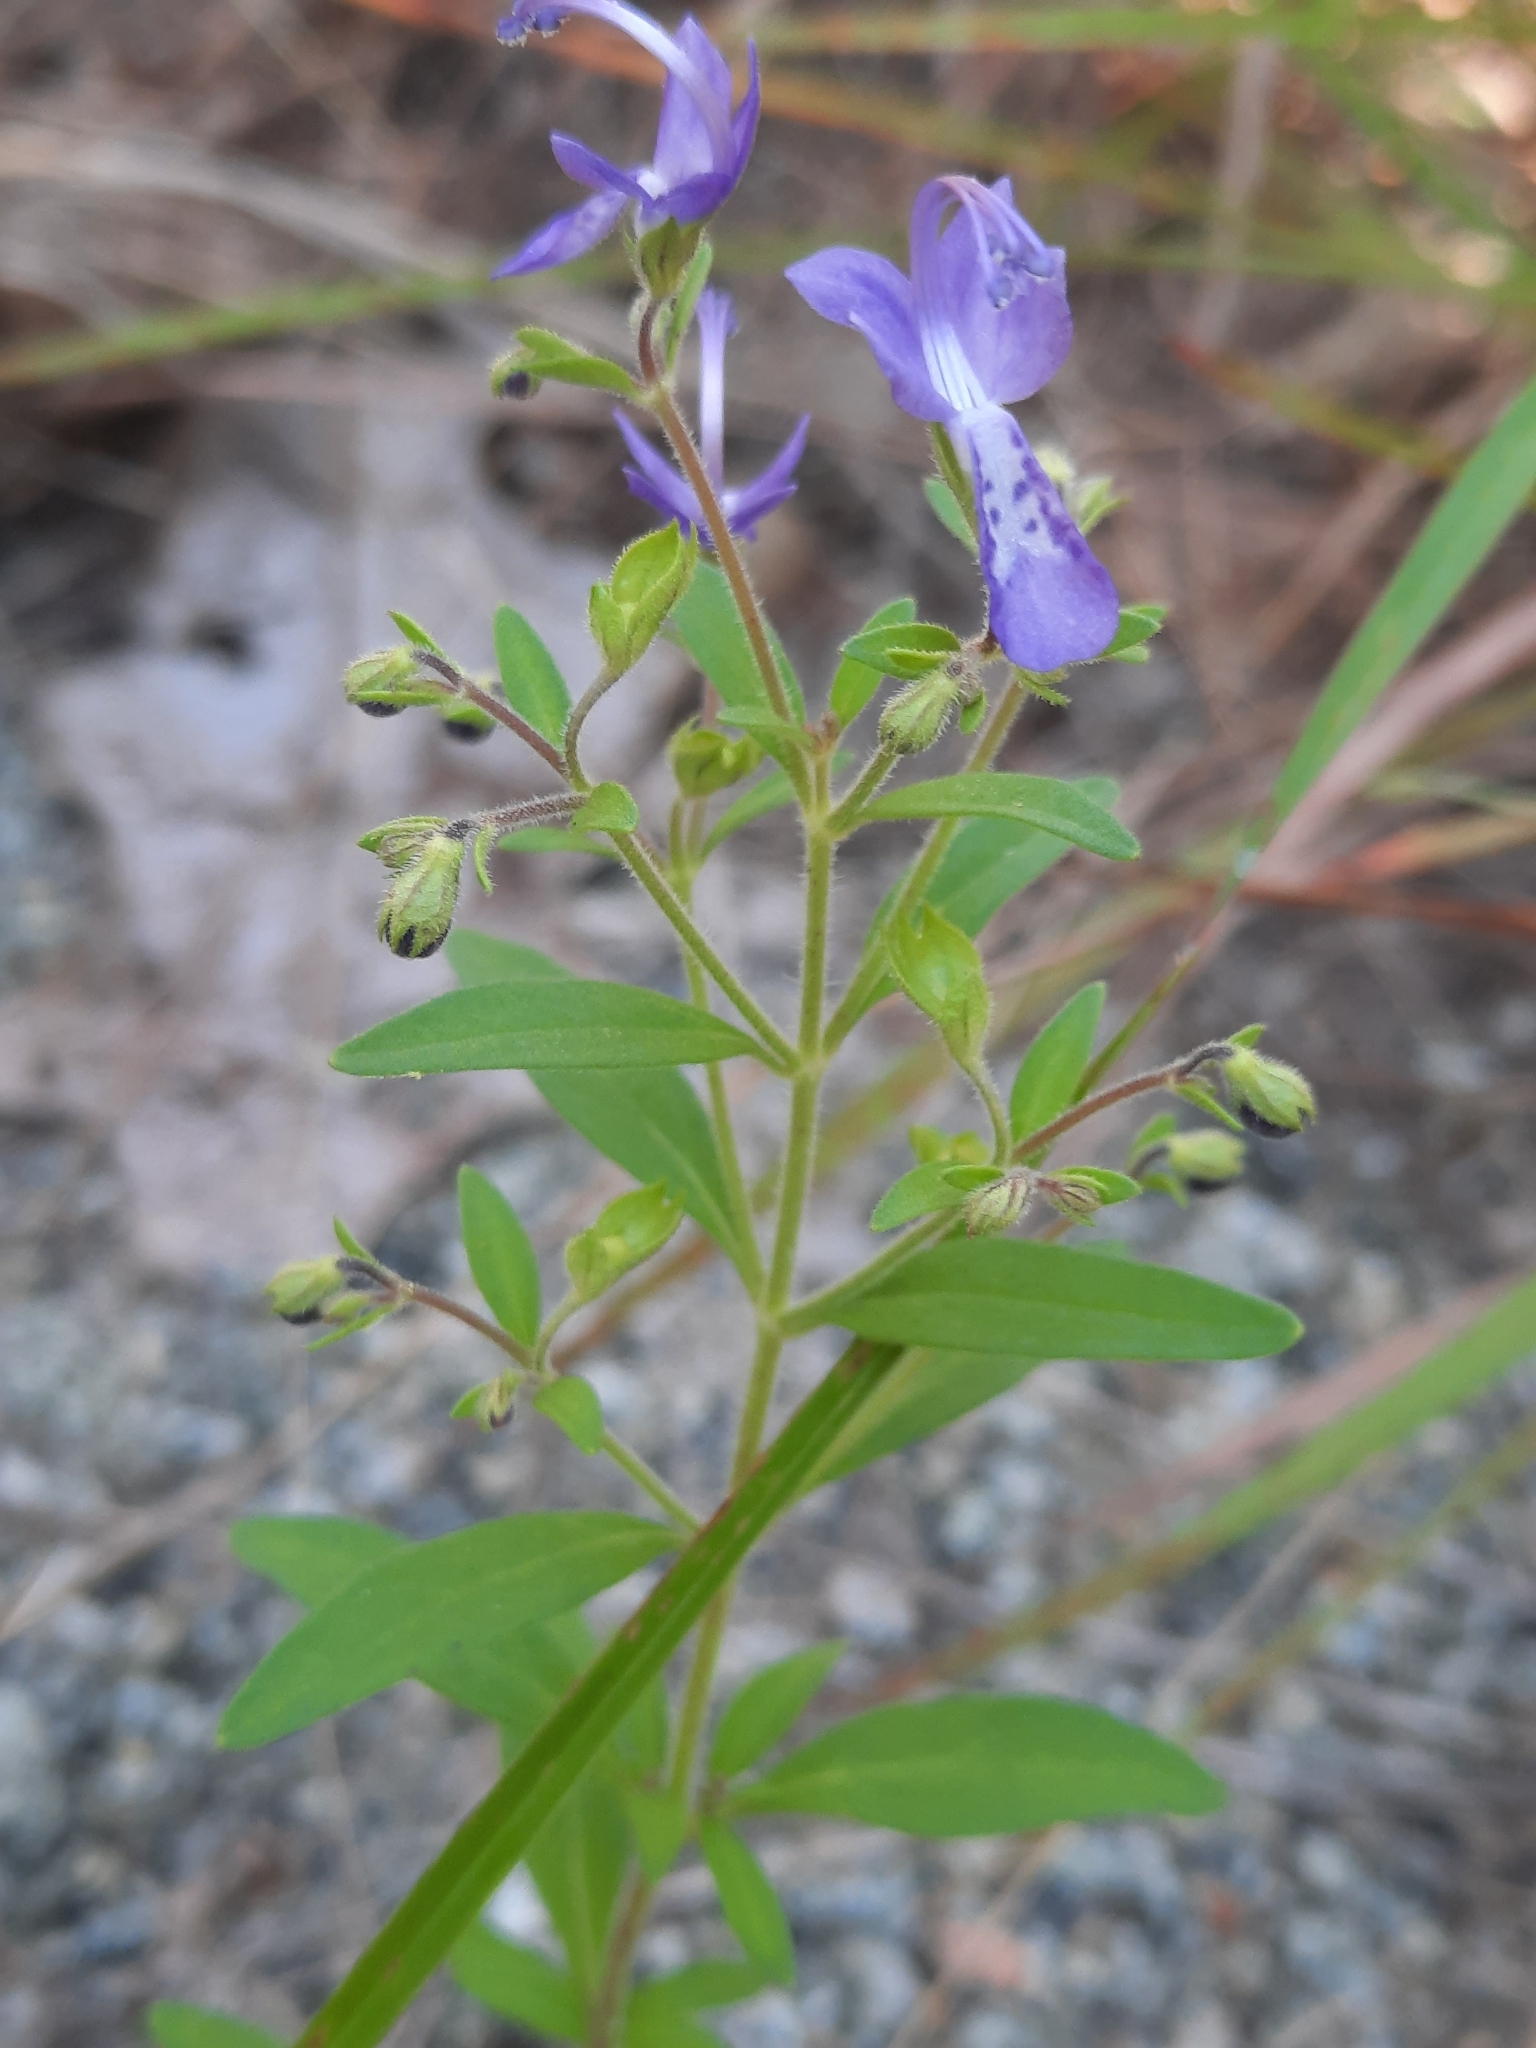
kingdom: Plantae
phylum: Tracheophyta
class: Magnoliopsida
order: Lamiales
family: Lamiaceae
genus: Trichostema
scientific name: Trichostema dichotomum
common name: Bastard pennyroyal
